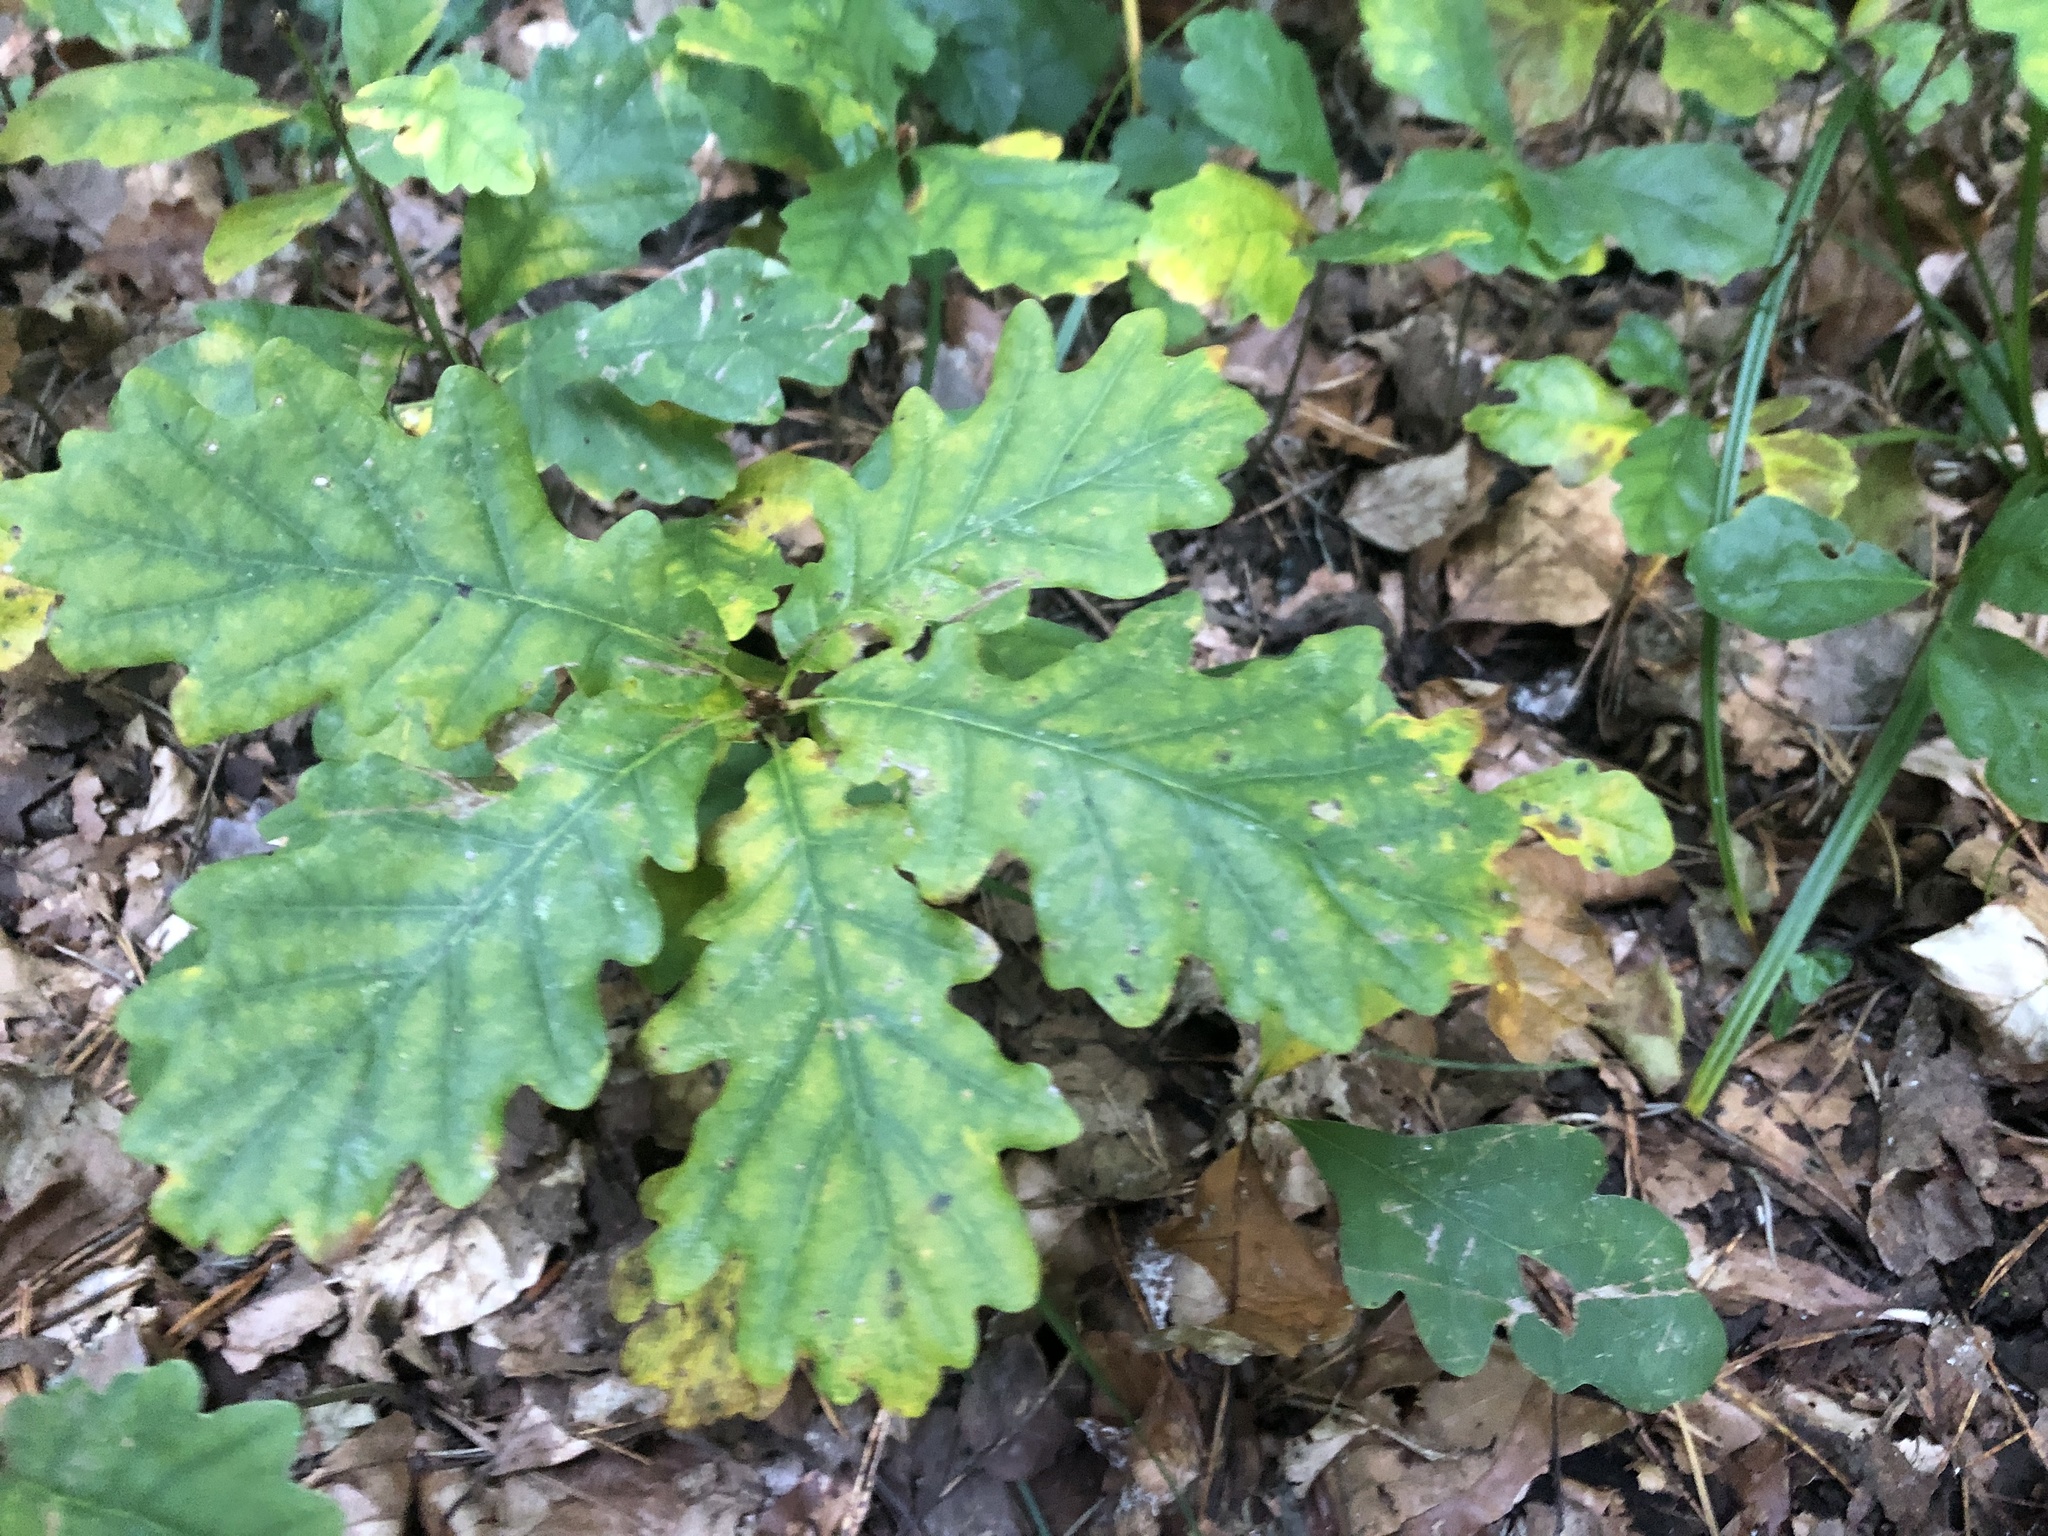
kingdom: Plantae
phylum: Tracheophyta
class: Magnoliopsida
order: Fagales
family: Fagaceae
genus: Quercus
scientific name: Quercus petraea
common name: Sessile oak
